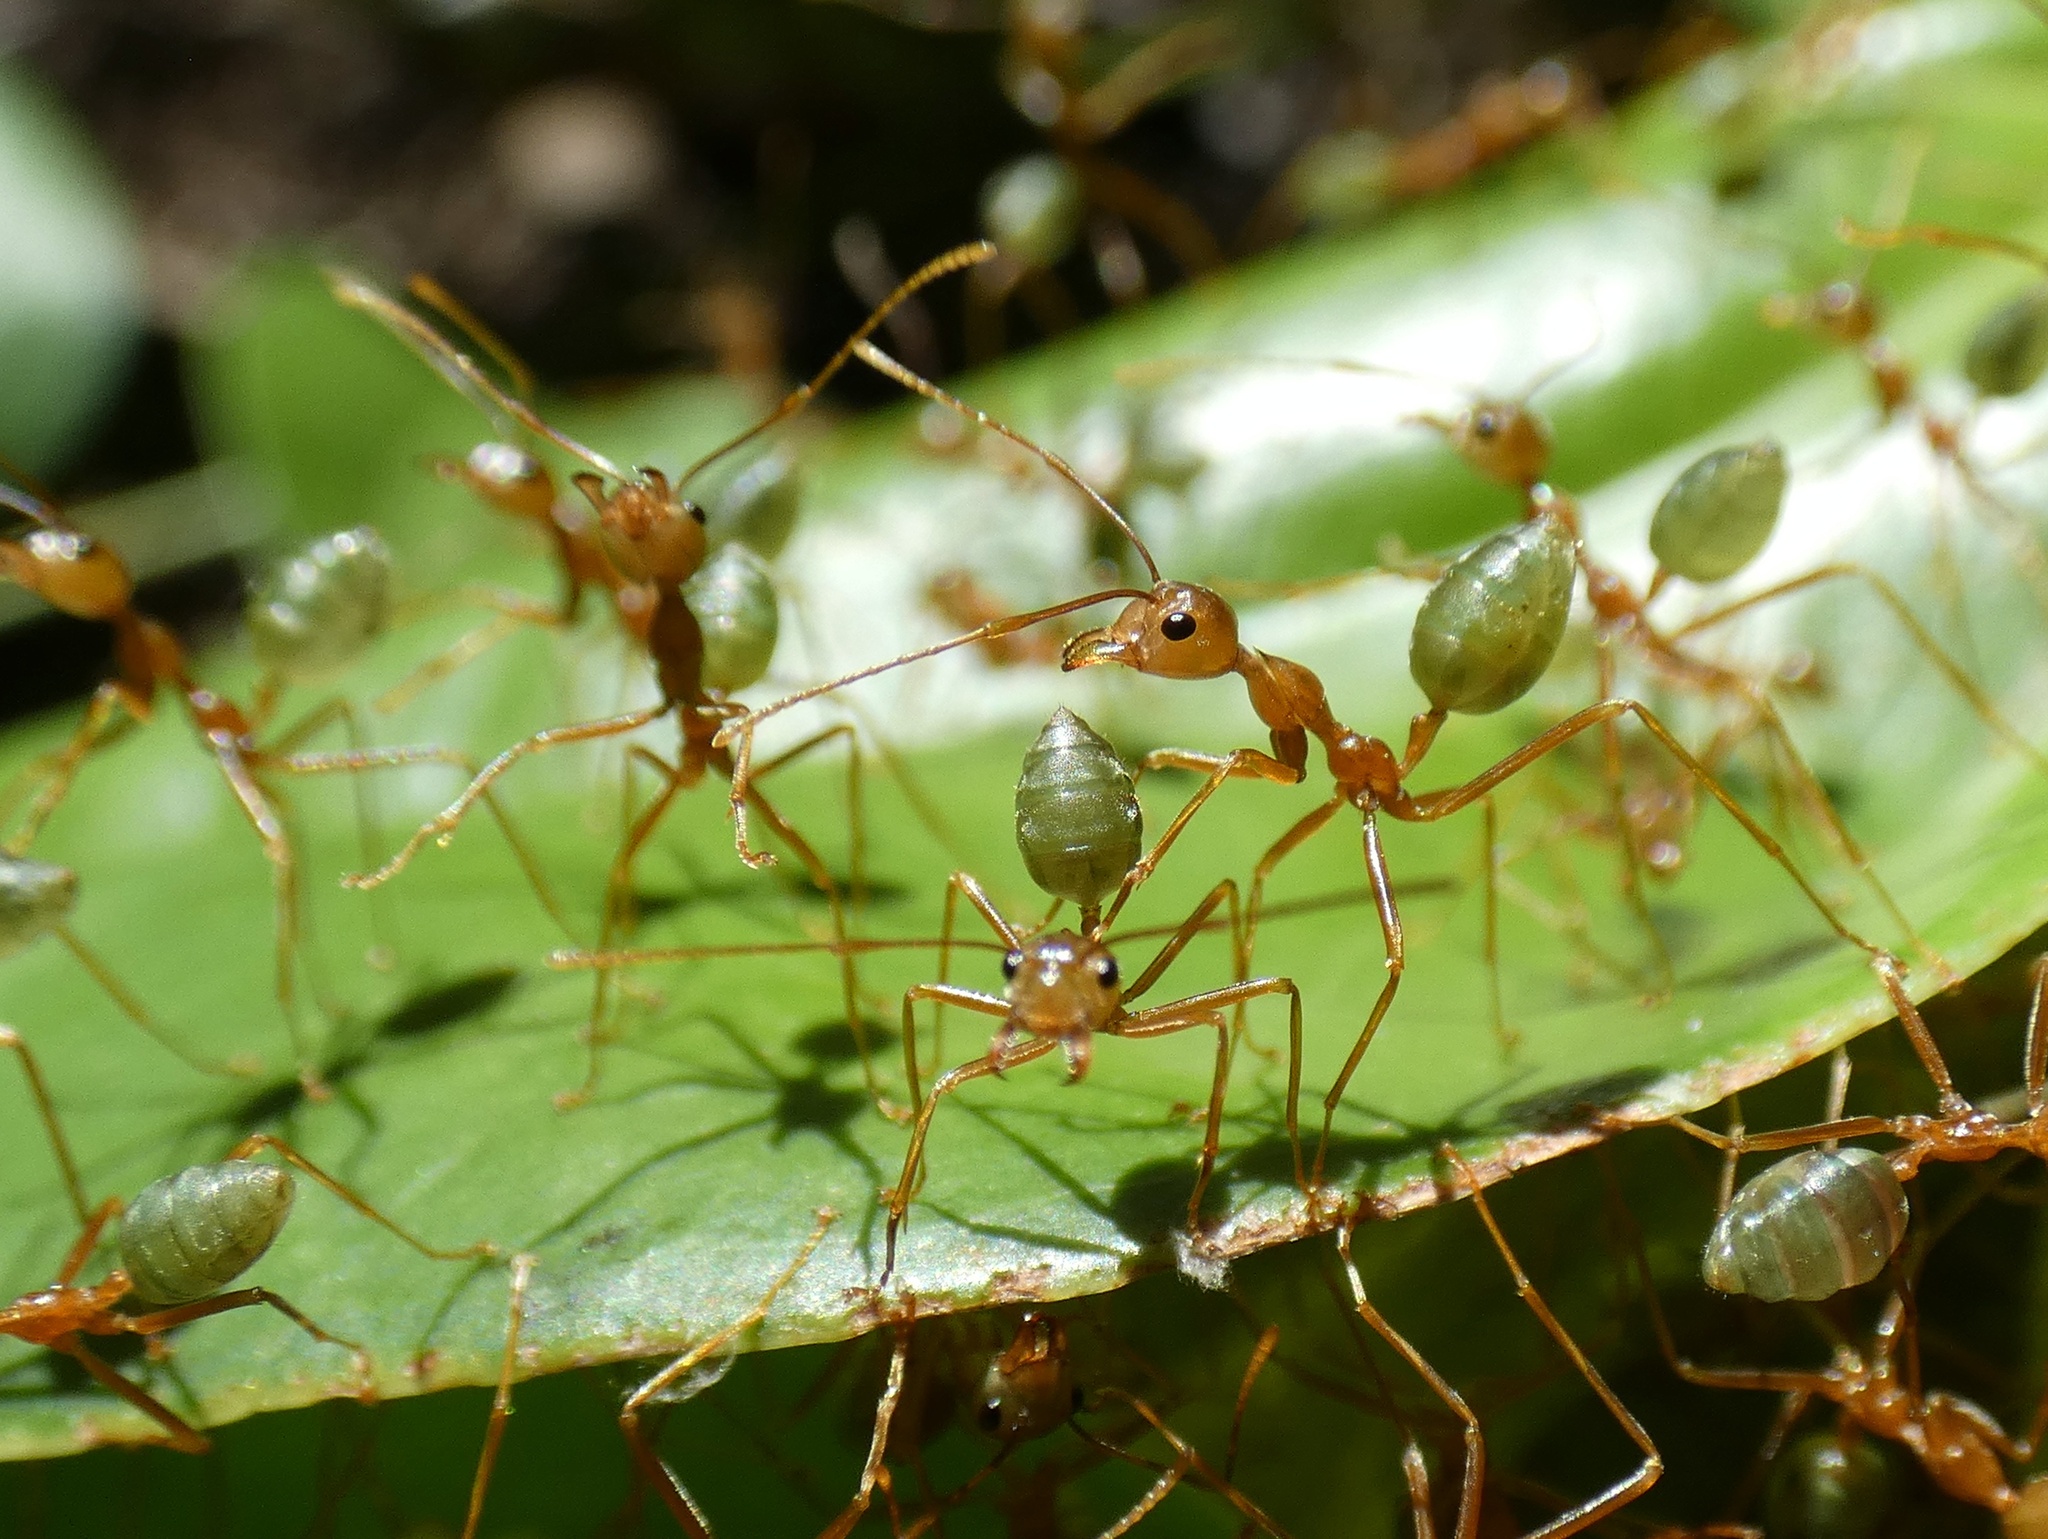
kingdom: Animalia
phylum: Arthropoda
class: Insecta
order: Hymenoptera
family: Formicidae
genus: Oecophylla
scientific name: Oecophylla smaragdina
